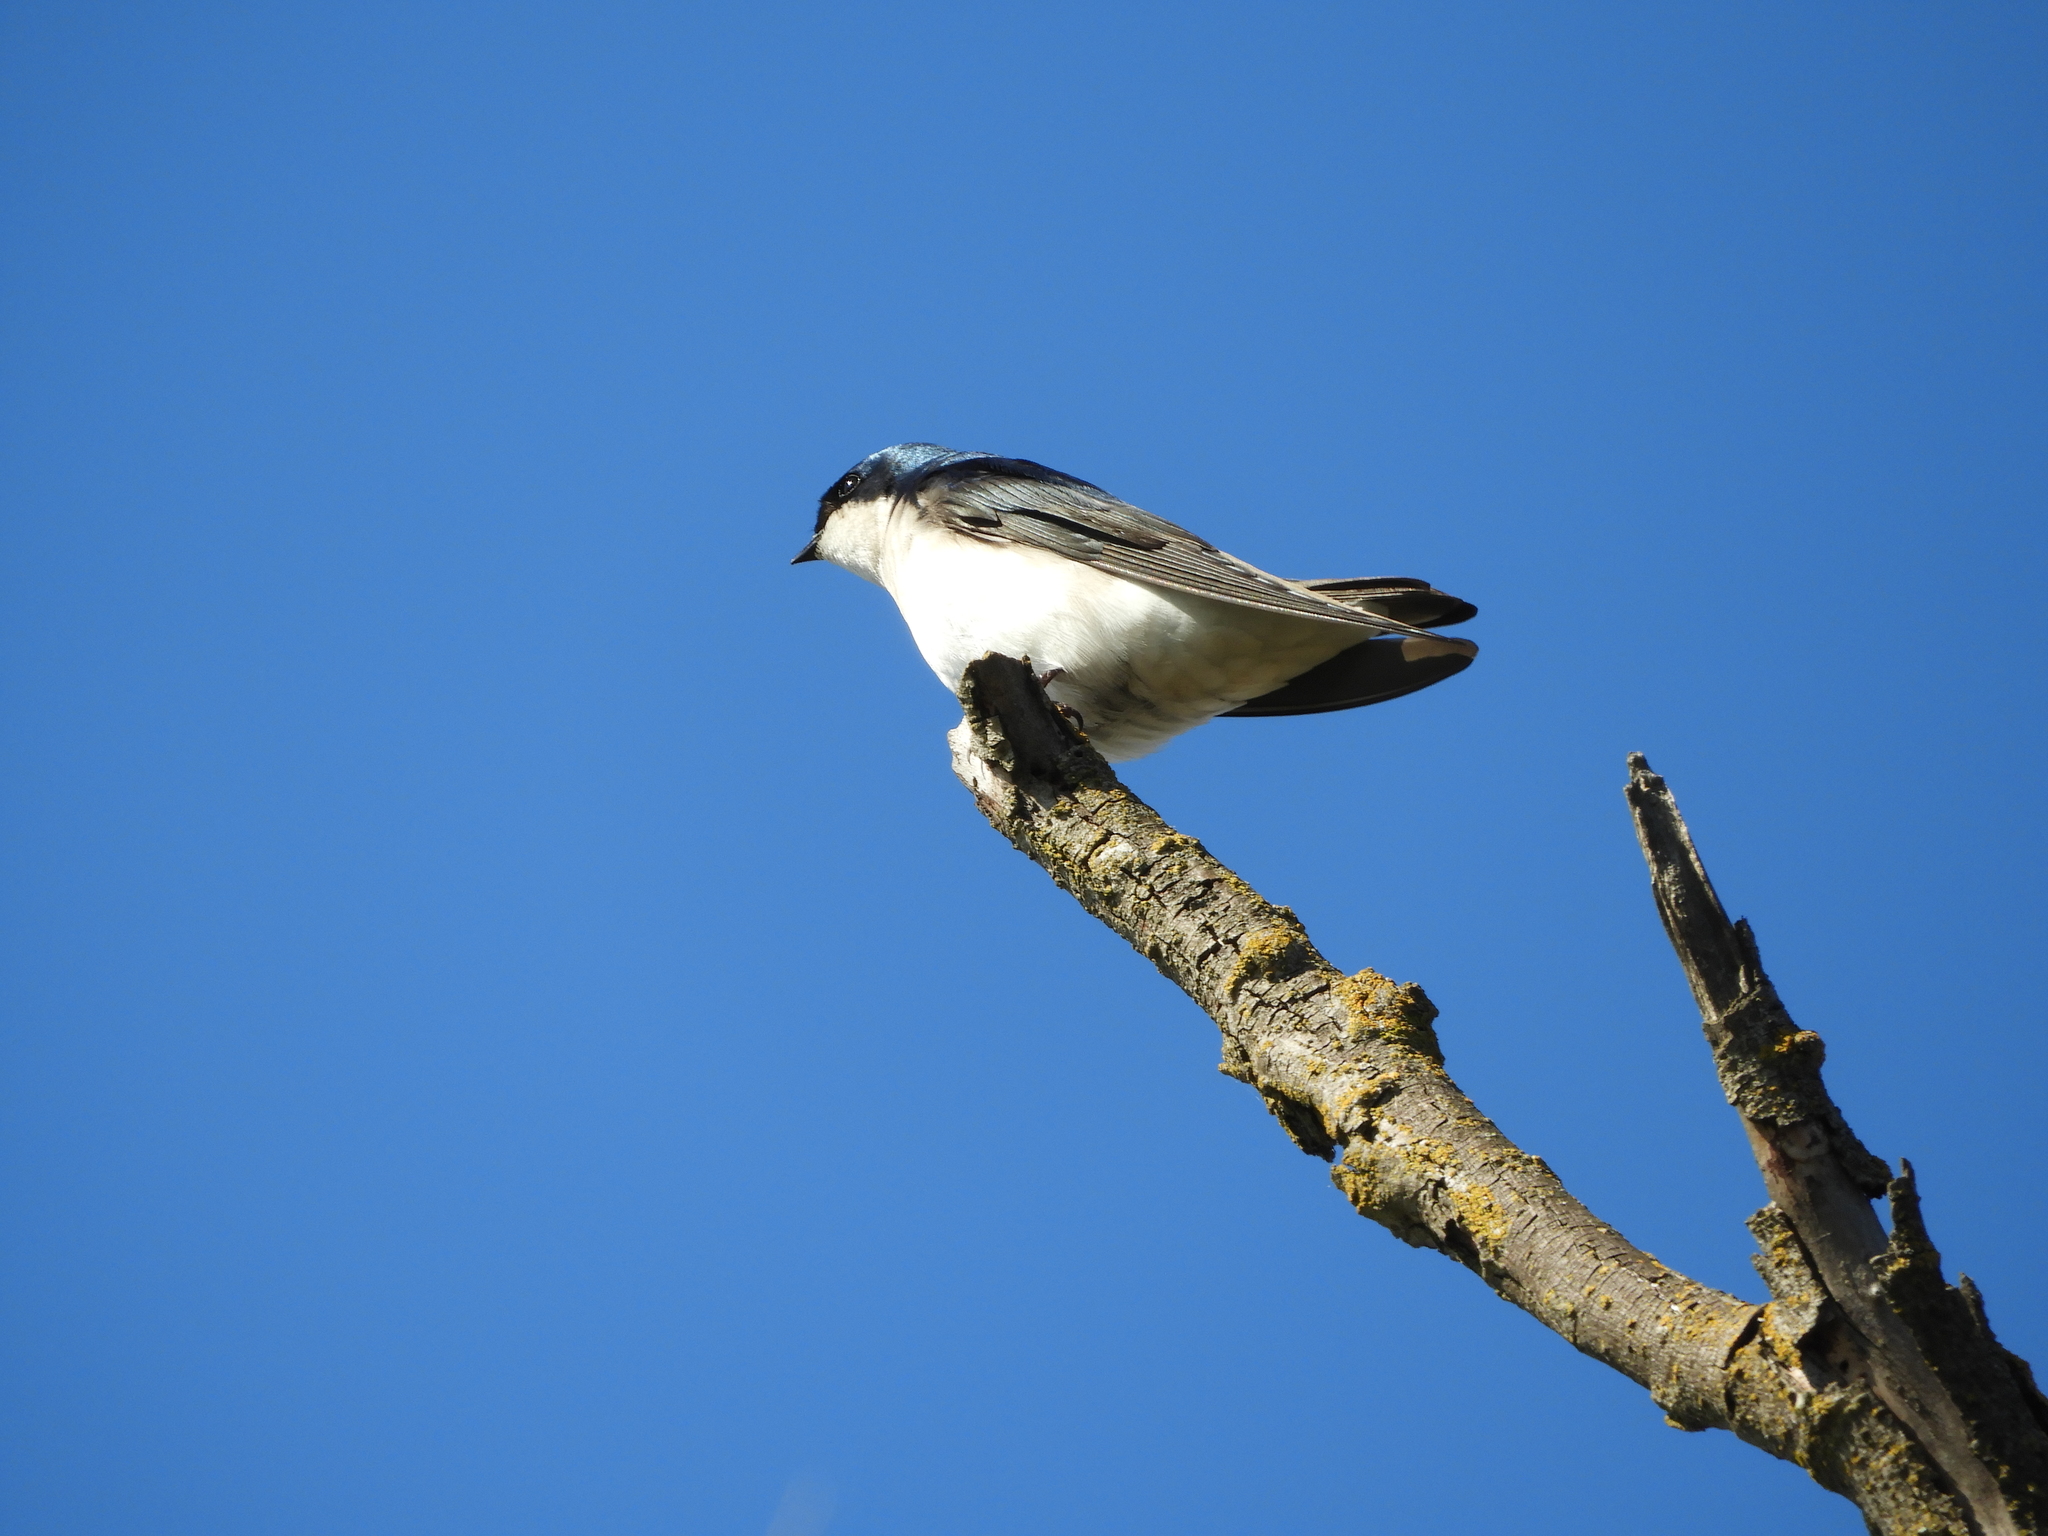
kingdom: Animalia
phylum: Chordata
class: Aves
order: Passeriformes
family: Hirundinidae
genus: Tachycineta
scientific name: Tachycineta bicolor
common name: Tree swallow
